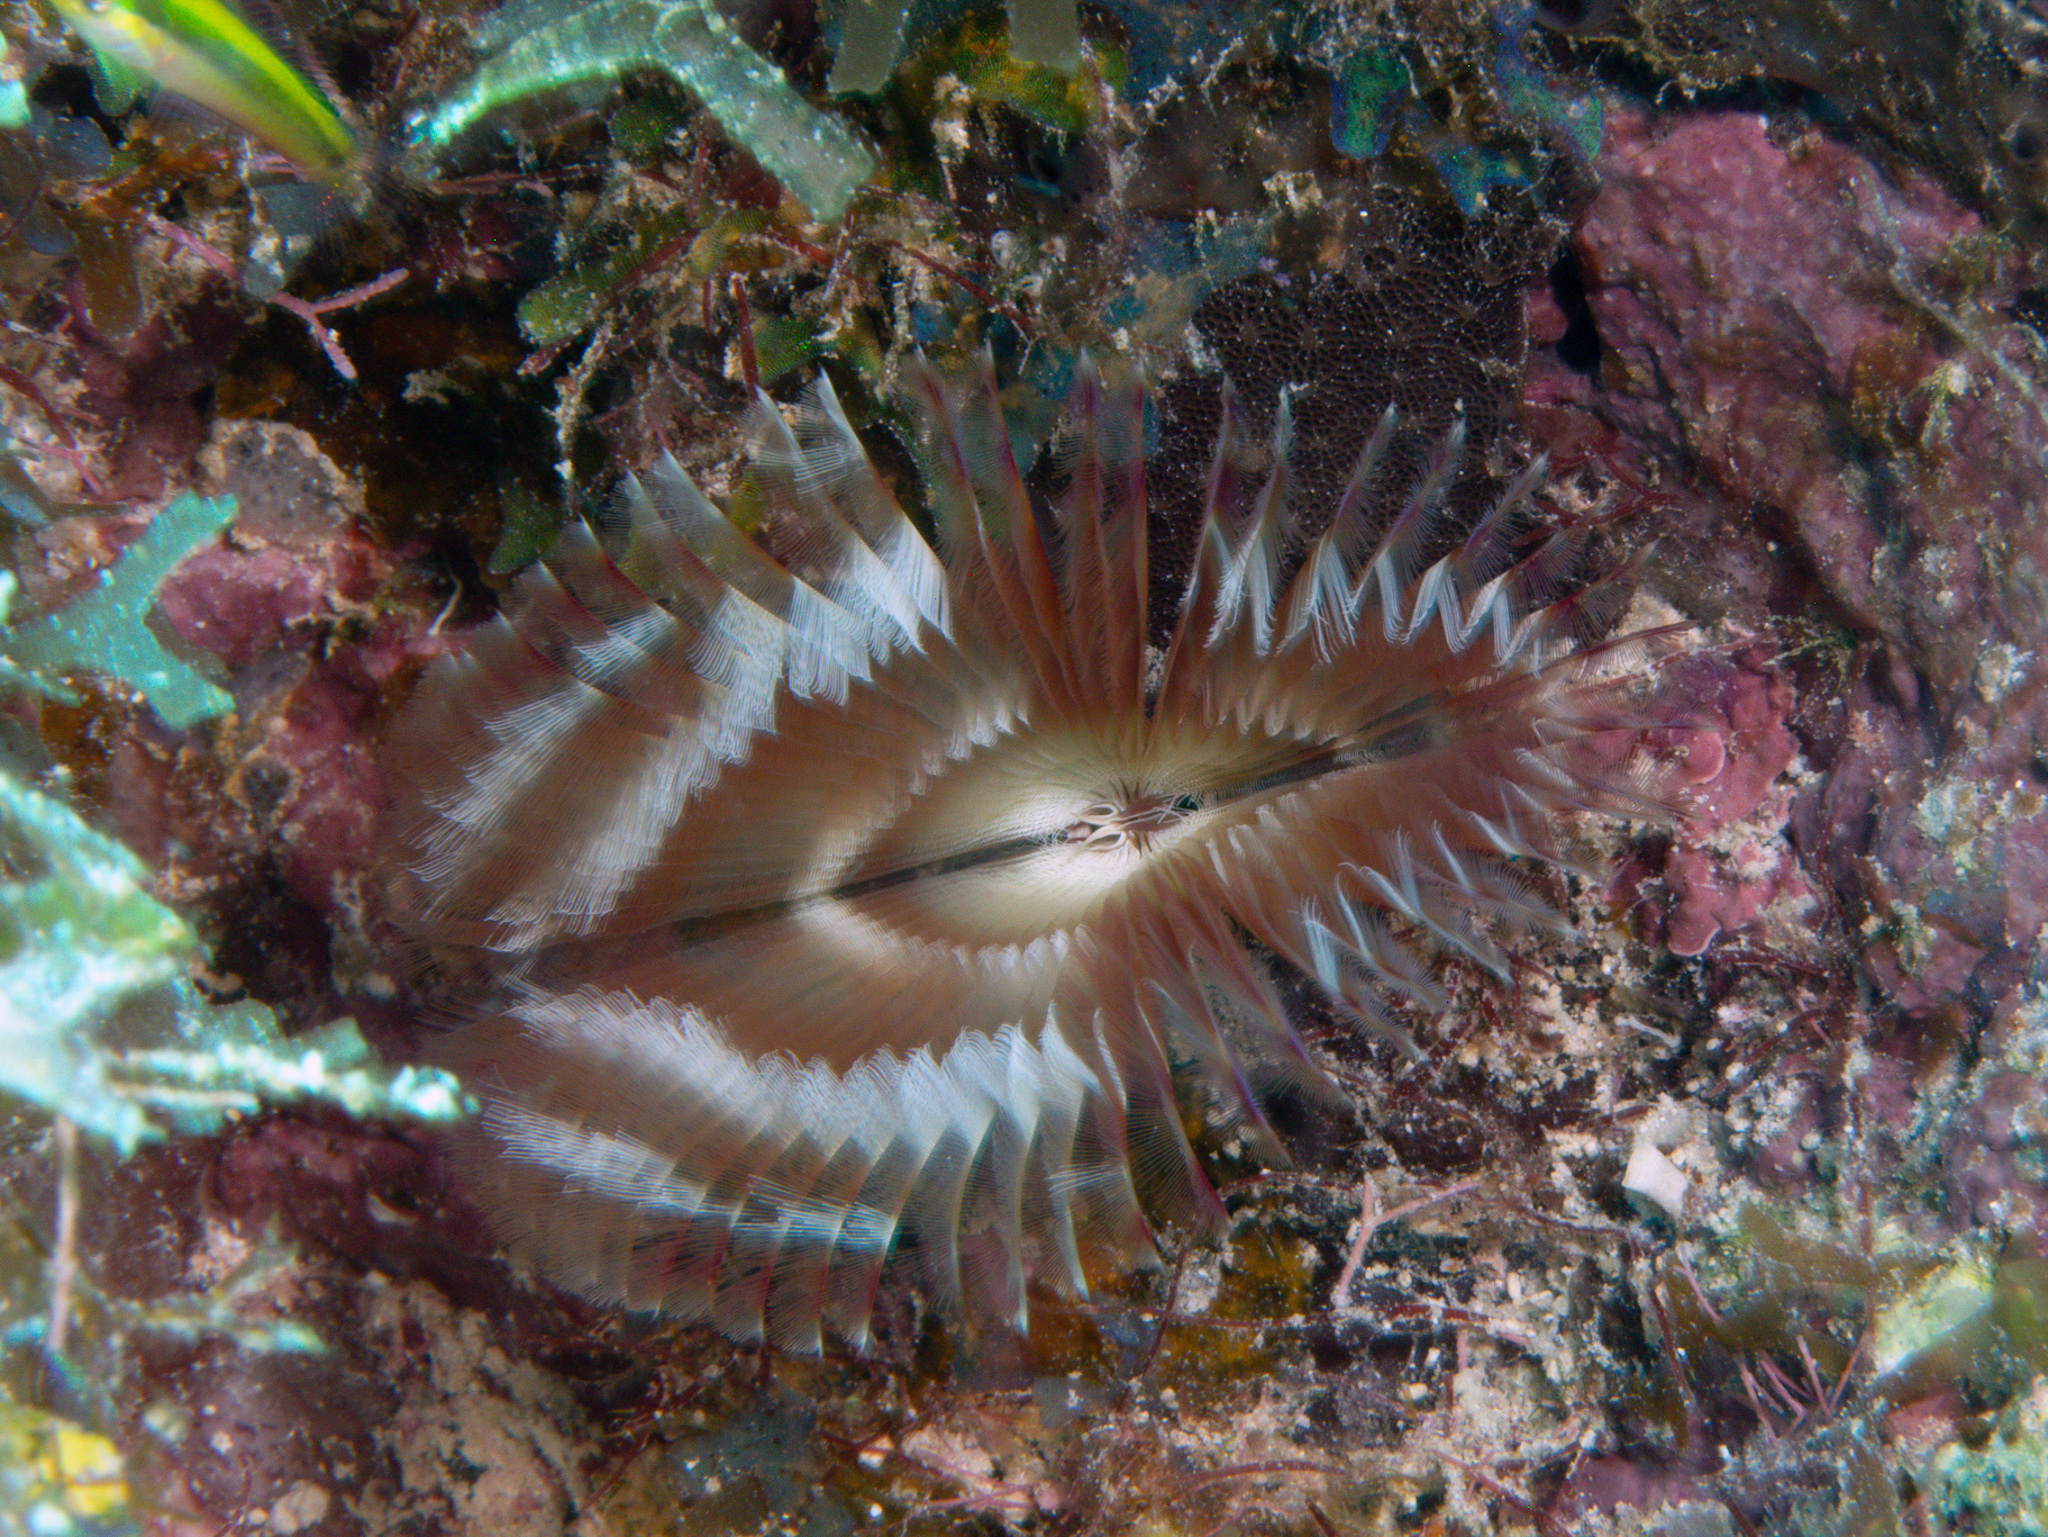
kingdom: Animalia
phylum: Annelida
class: Polychaeta
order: Sabellida
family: Sabellidae
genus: Anamobaea
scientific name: Anamobaea orstedii
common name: Split-crown feather duster
